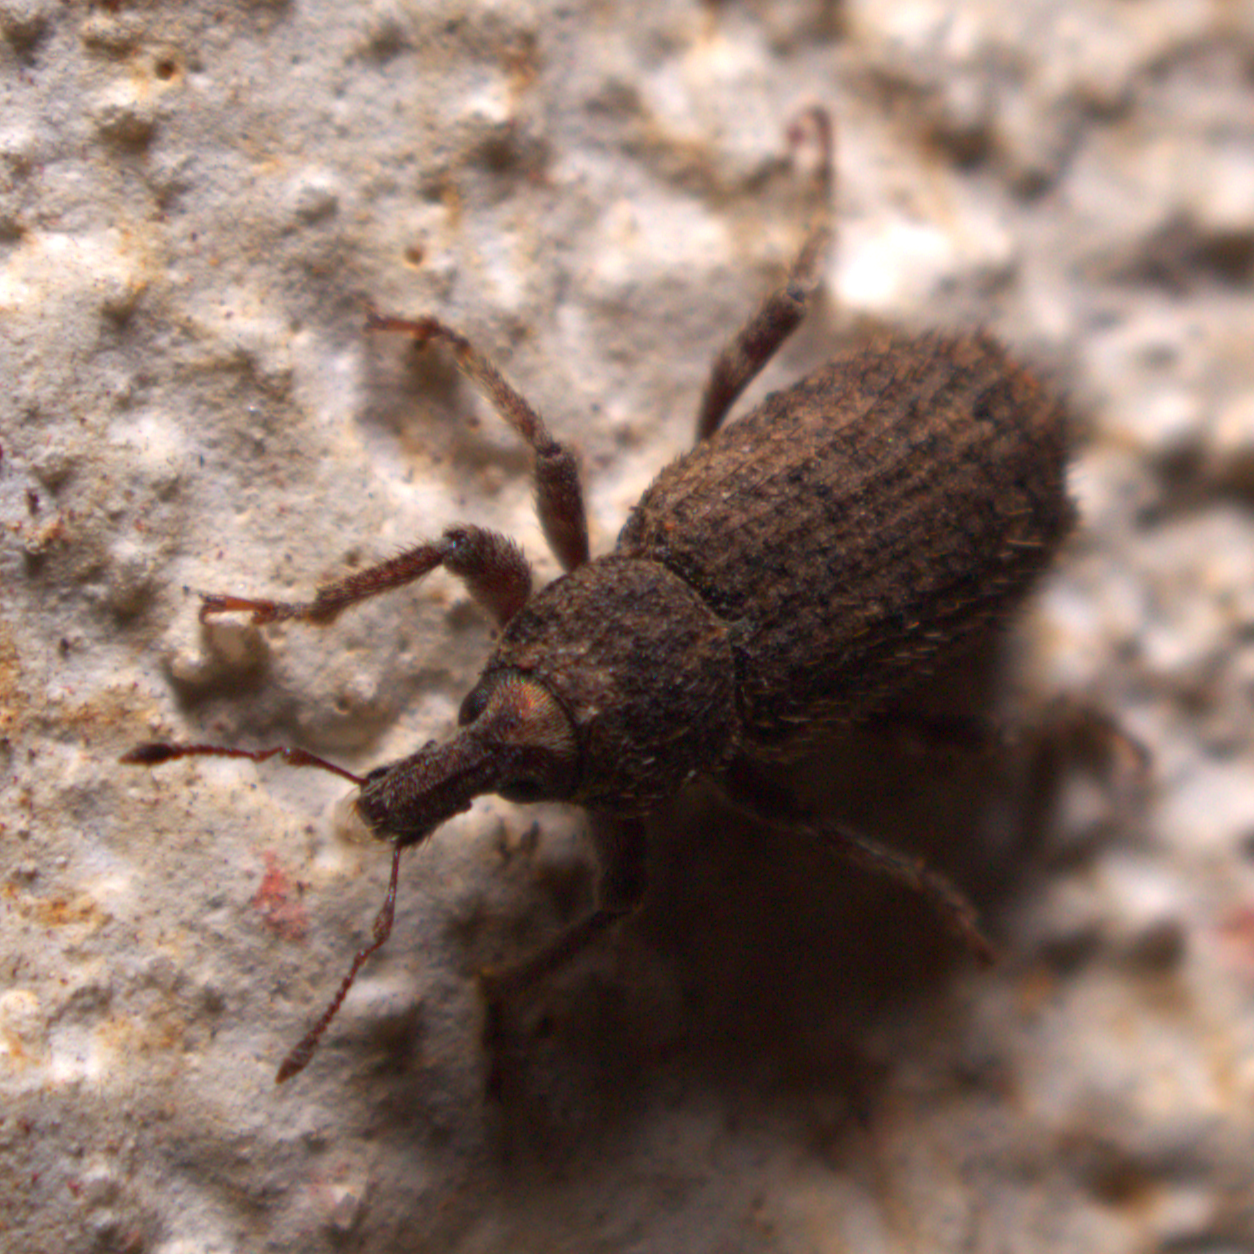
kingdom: Animalia
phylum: Arthropoda
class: Insecta
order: Coleoptera
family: Curculionidae
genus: Listroderes
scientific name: Listroderes costirostris
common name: Weevil
